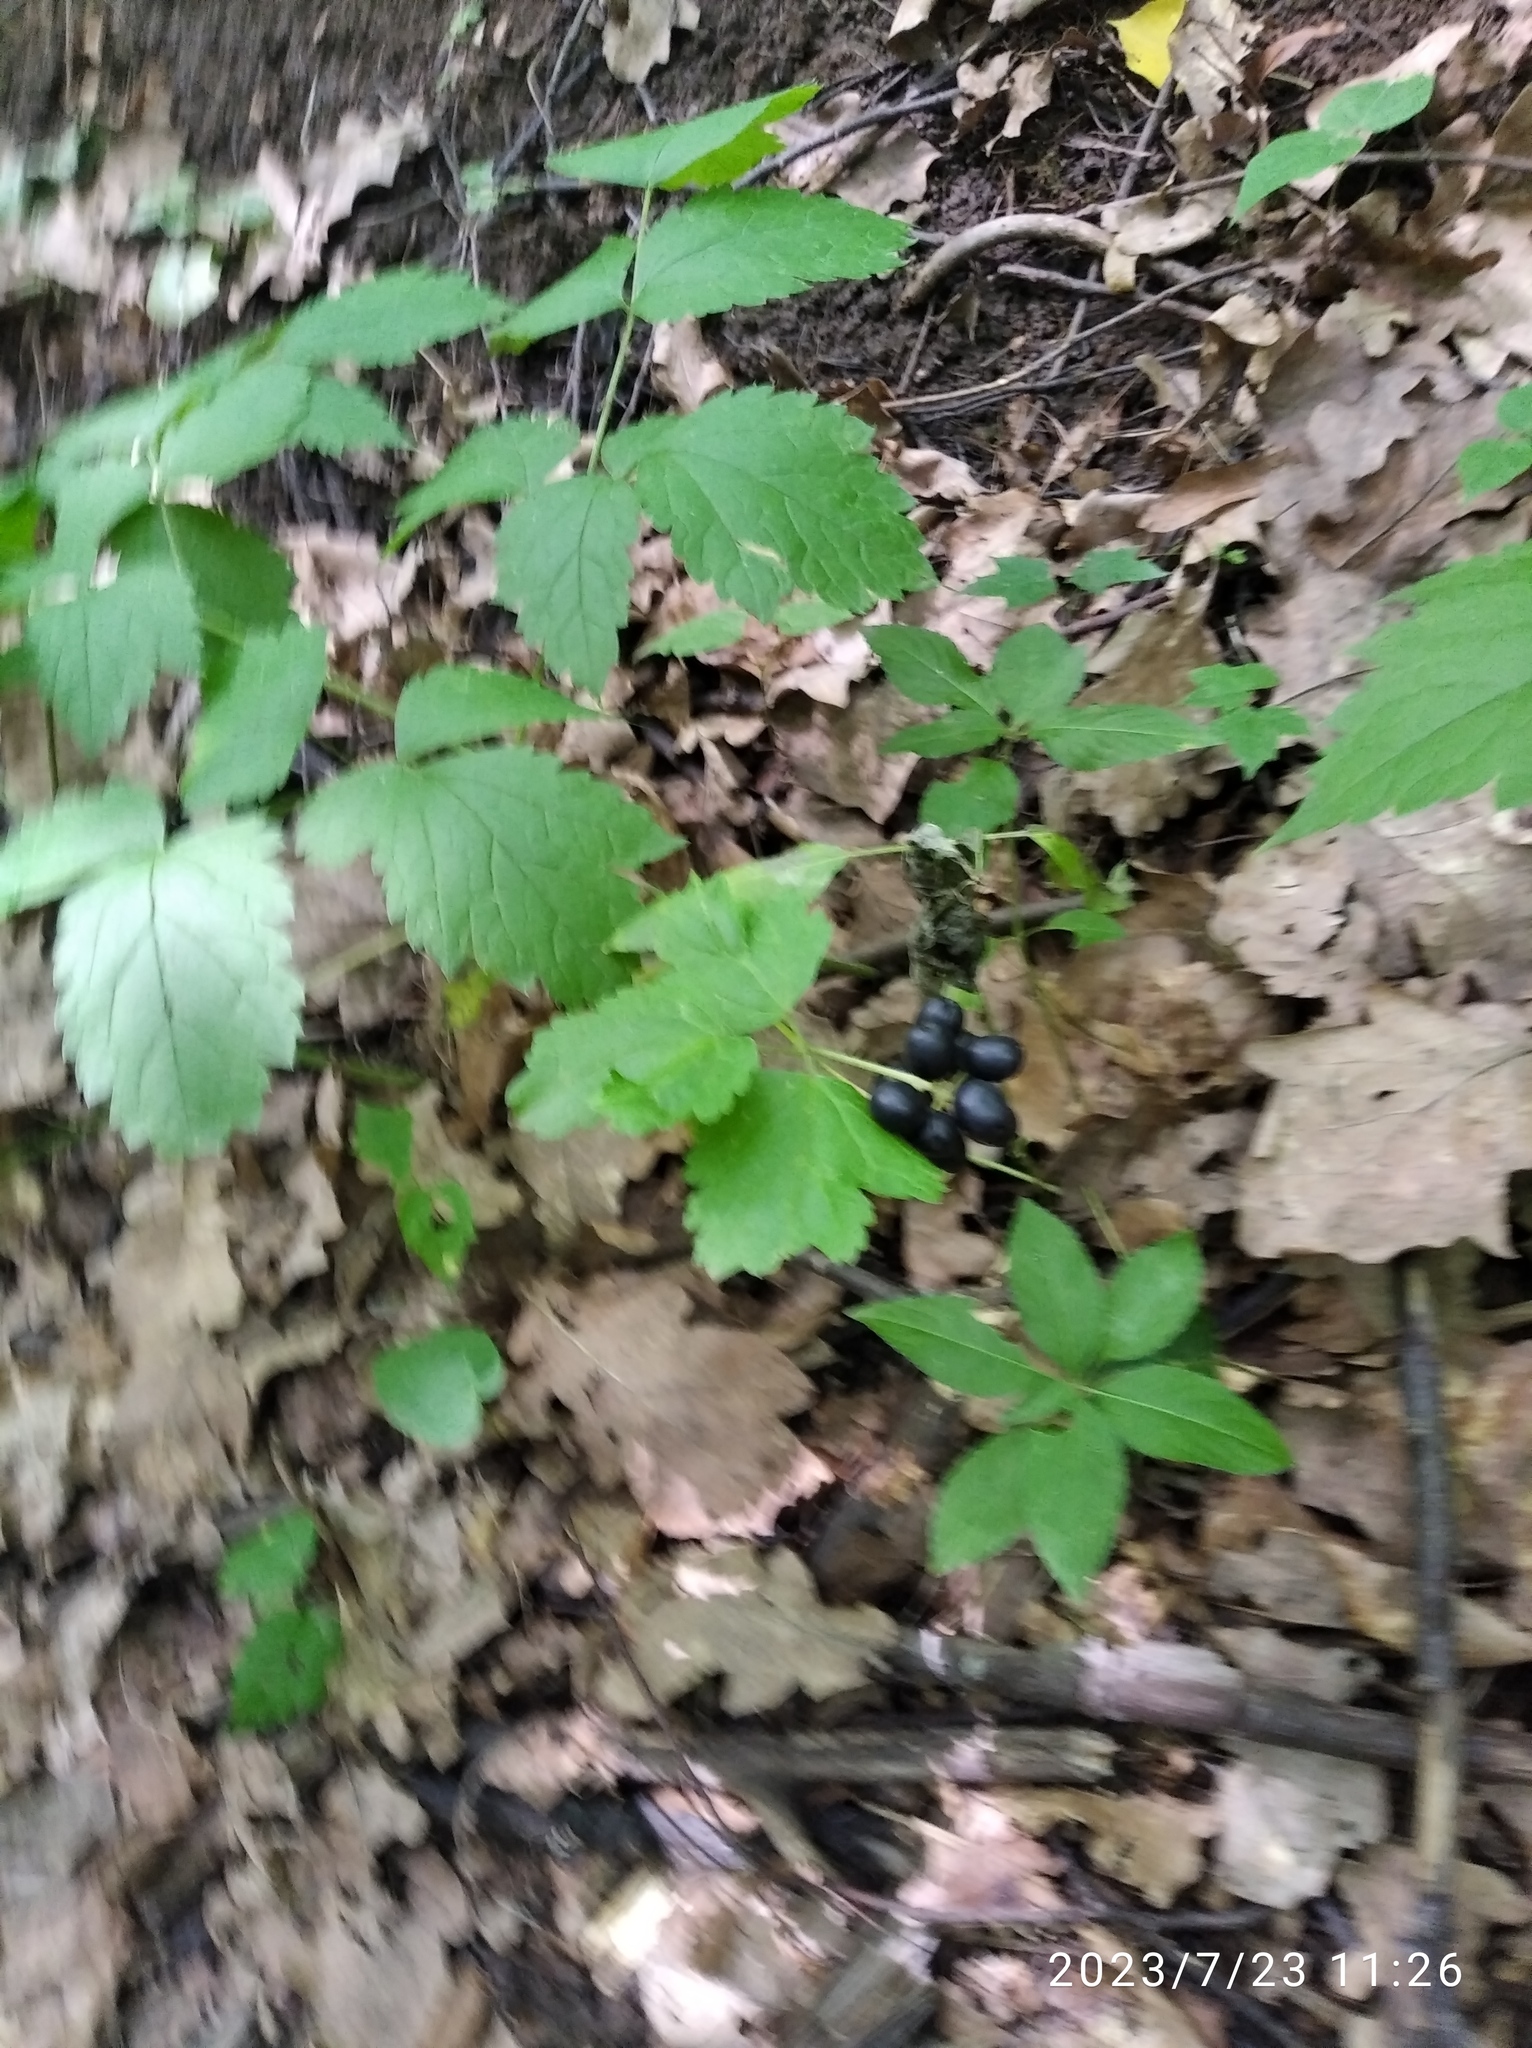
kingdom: Plantae
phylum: Tracheophyta
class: Magnoliopsida
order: Ranunculales
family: Ranunculaceae
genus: Actaea
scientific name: Actaea spicata
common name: Baneberry
